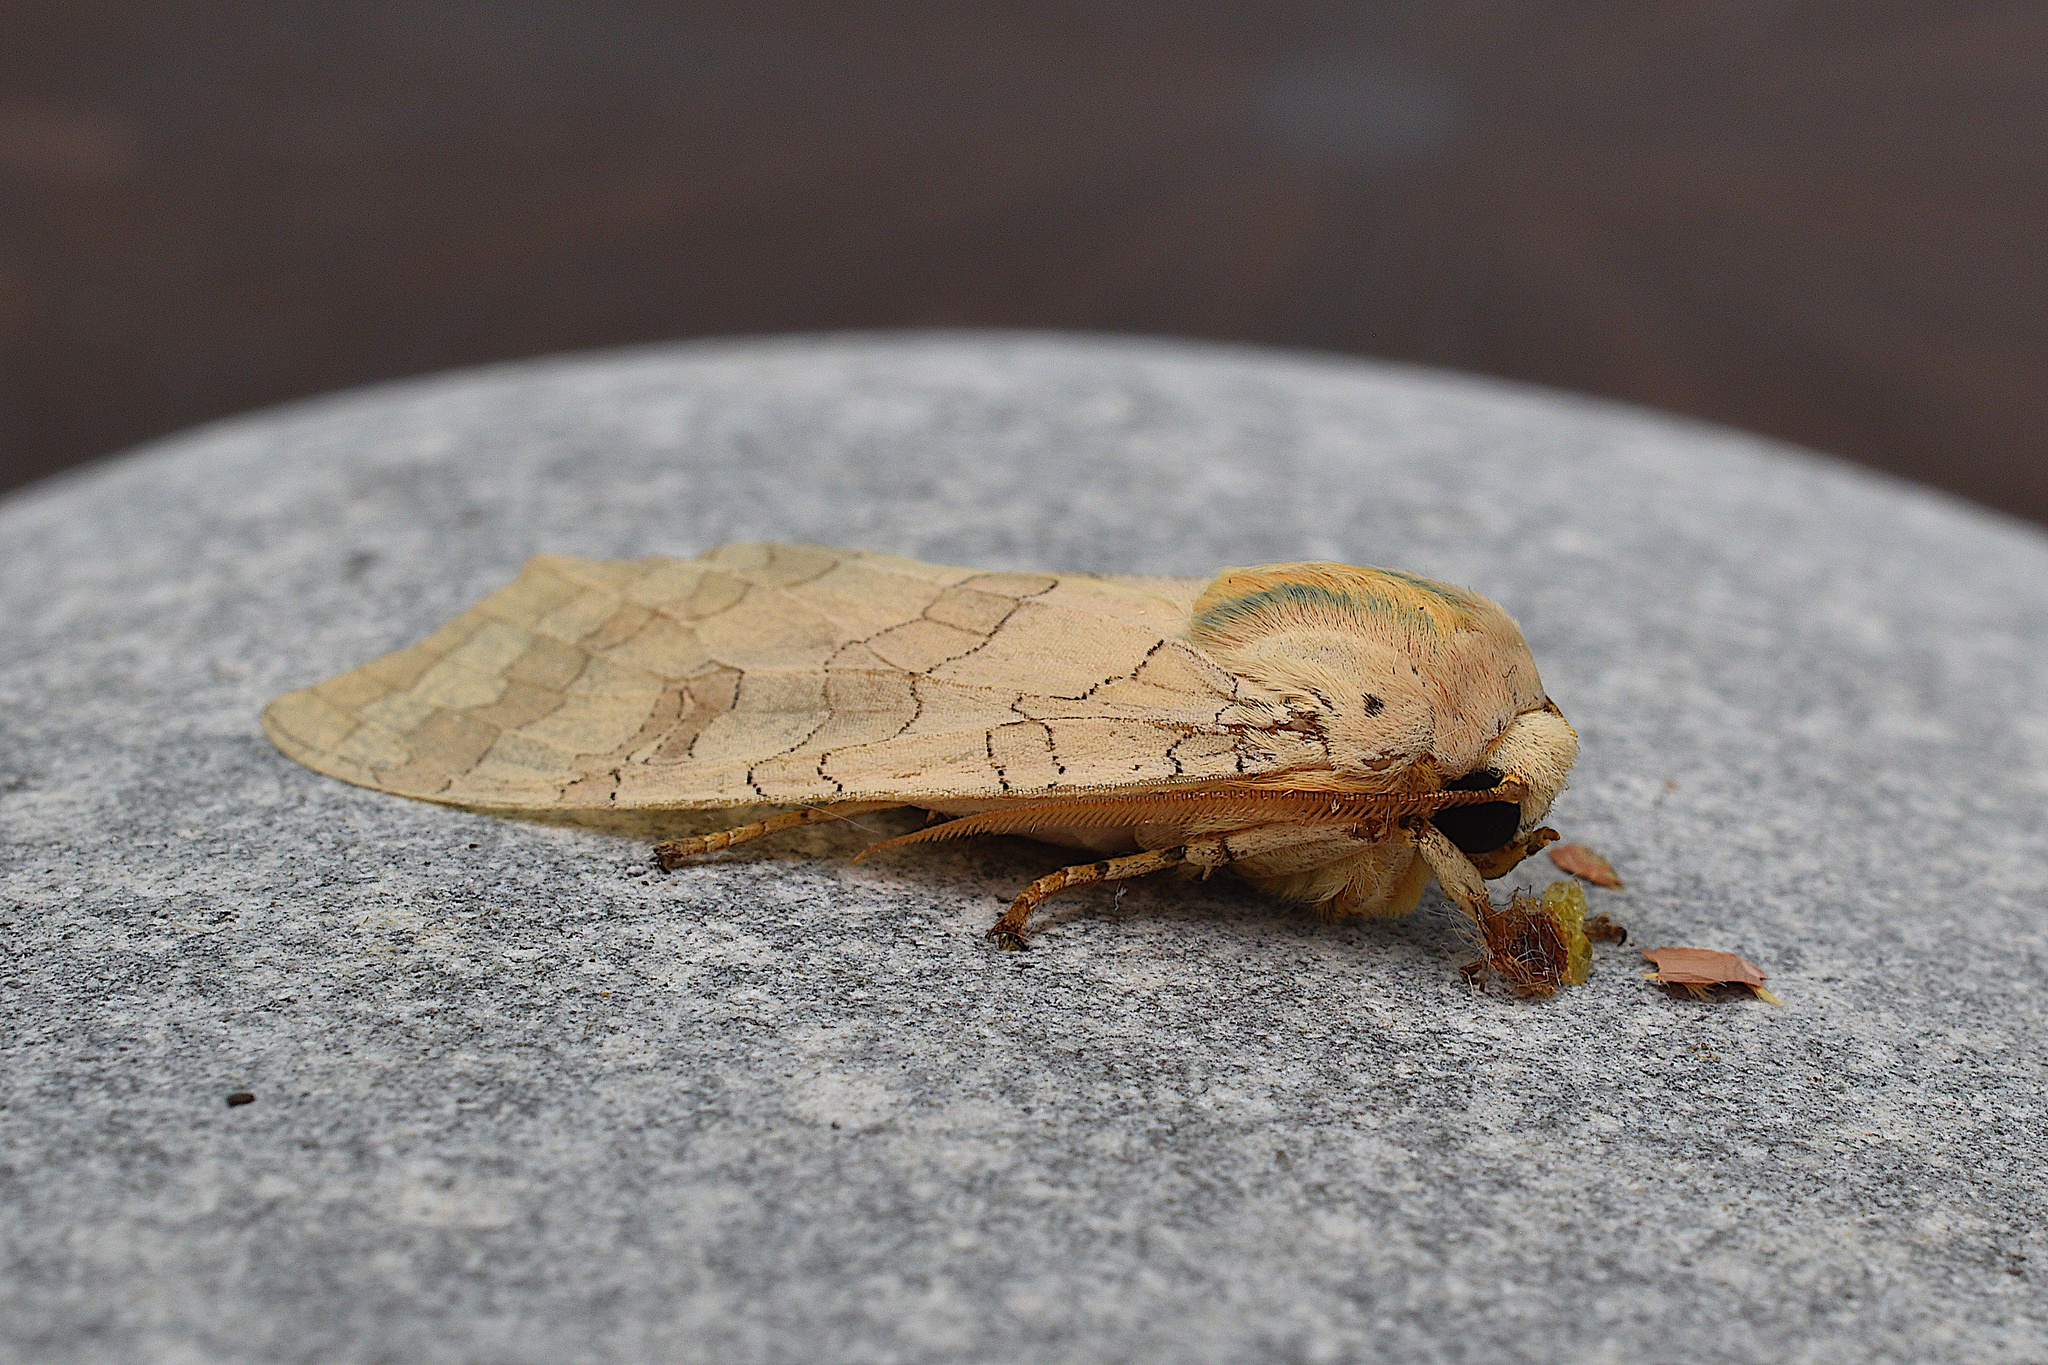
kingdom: Animalia
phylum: Arthropoda
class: Insecta
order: Lepidoptera
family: Erebidae
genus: Halysidota
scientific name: Halysidota tessellaris
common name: Banded tussock moth
